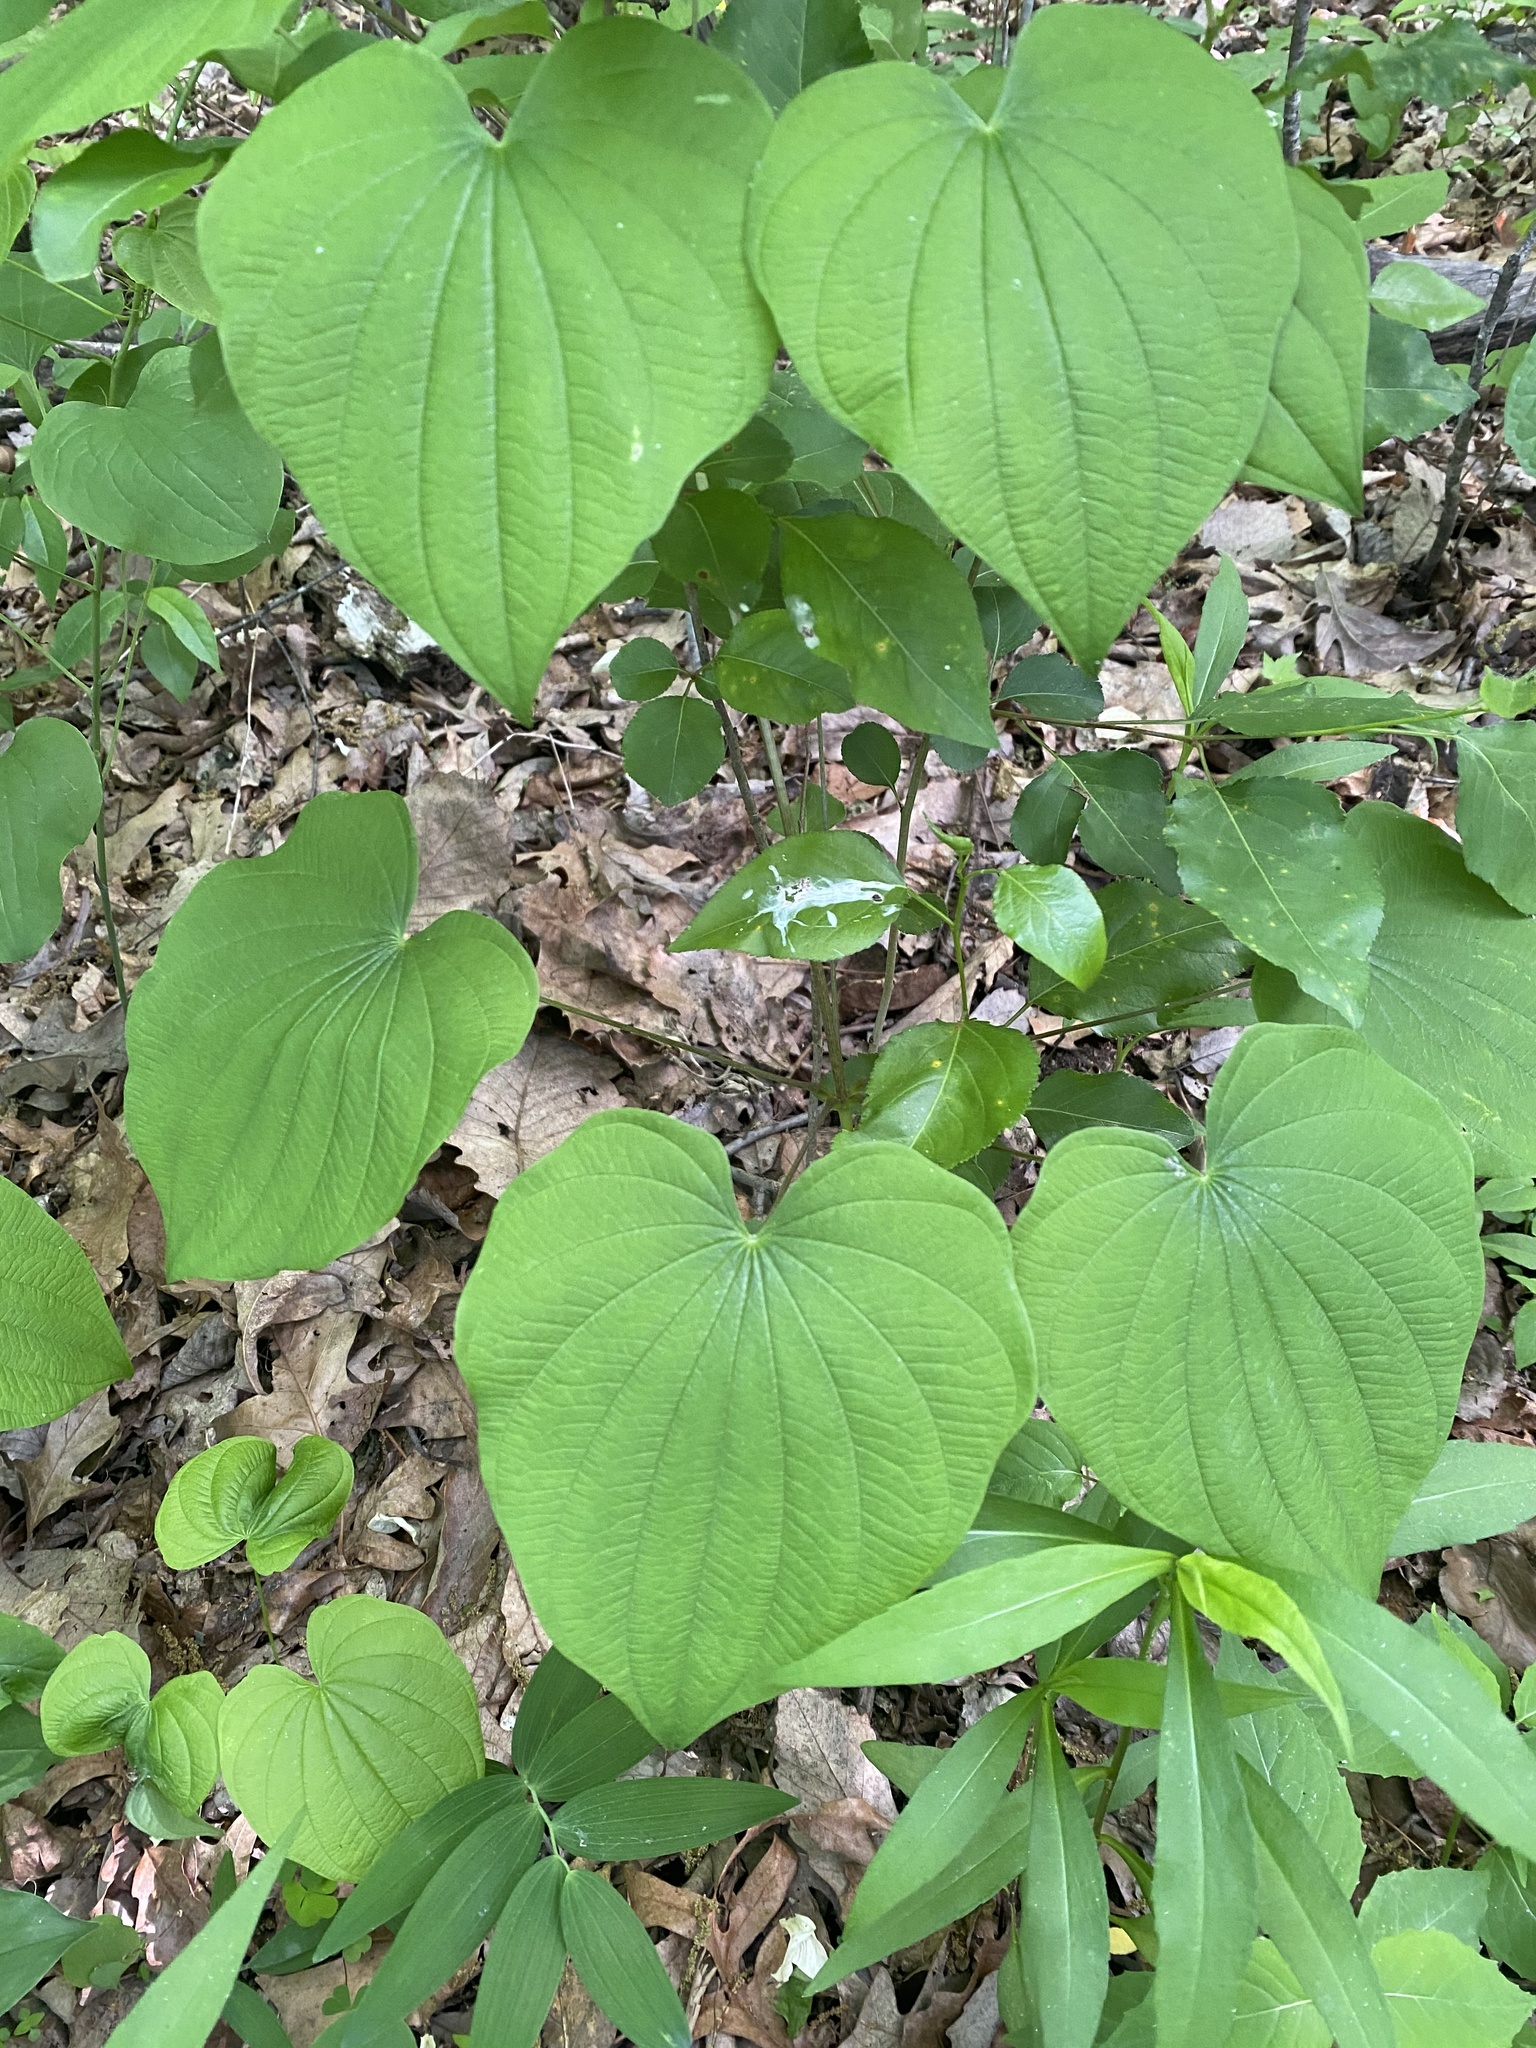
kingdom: Plantae
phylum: Tracheophyta
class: Liliopsida
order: Dioscoreales
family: Dioscoreaceae
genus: Dioscorea
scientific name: Dioscorea villosa
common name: Wild yam
